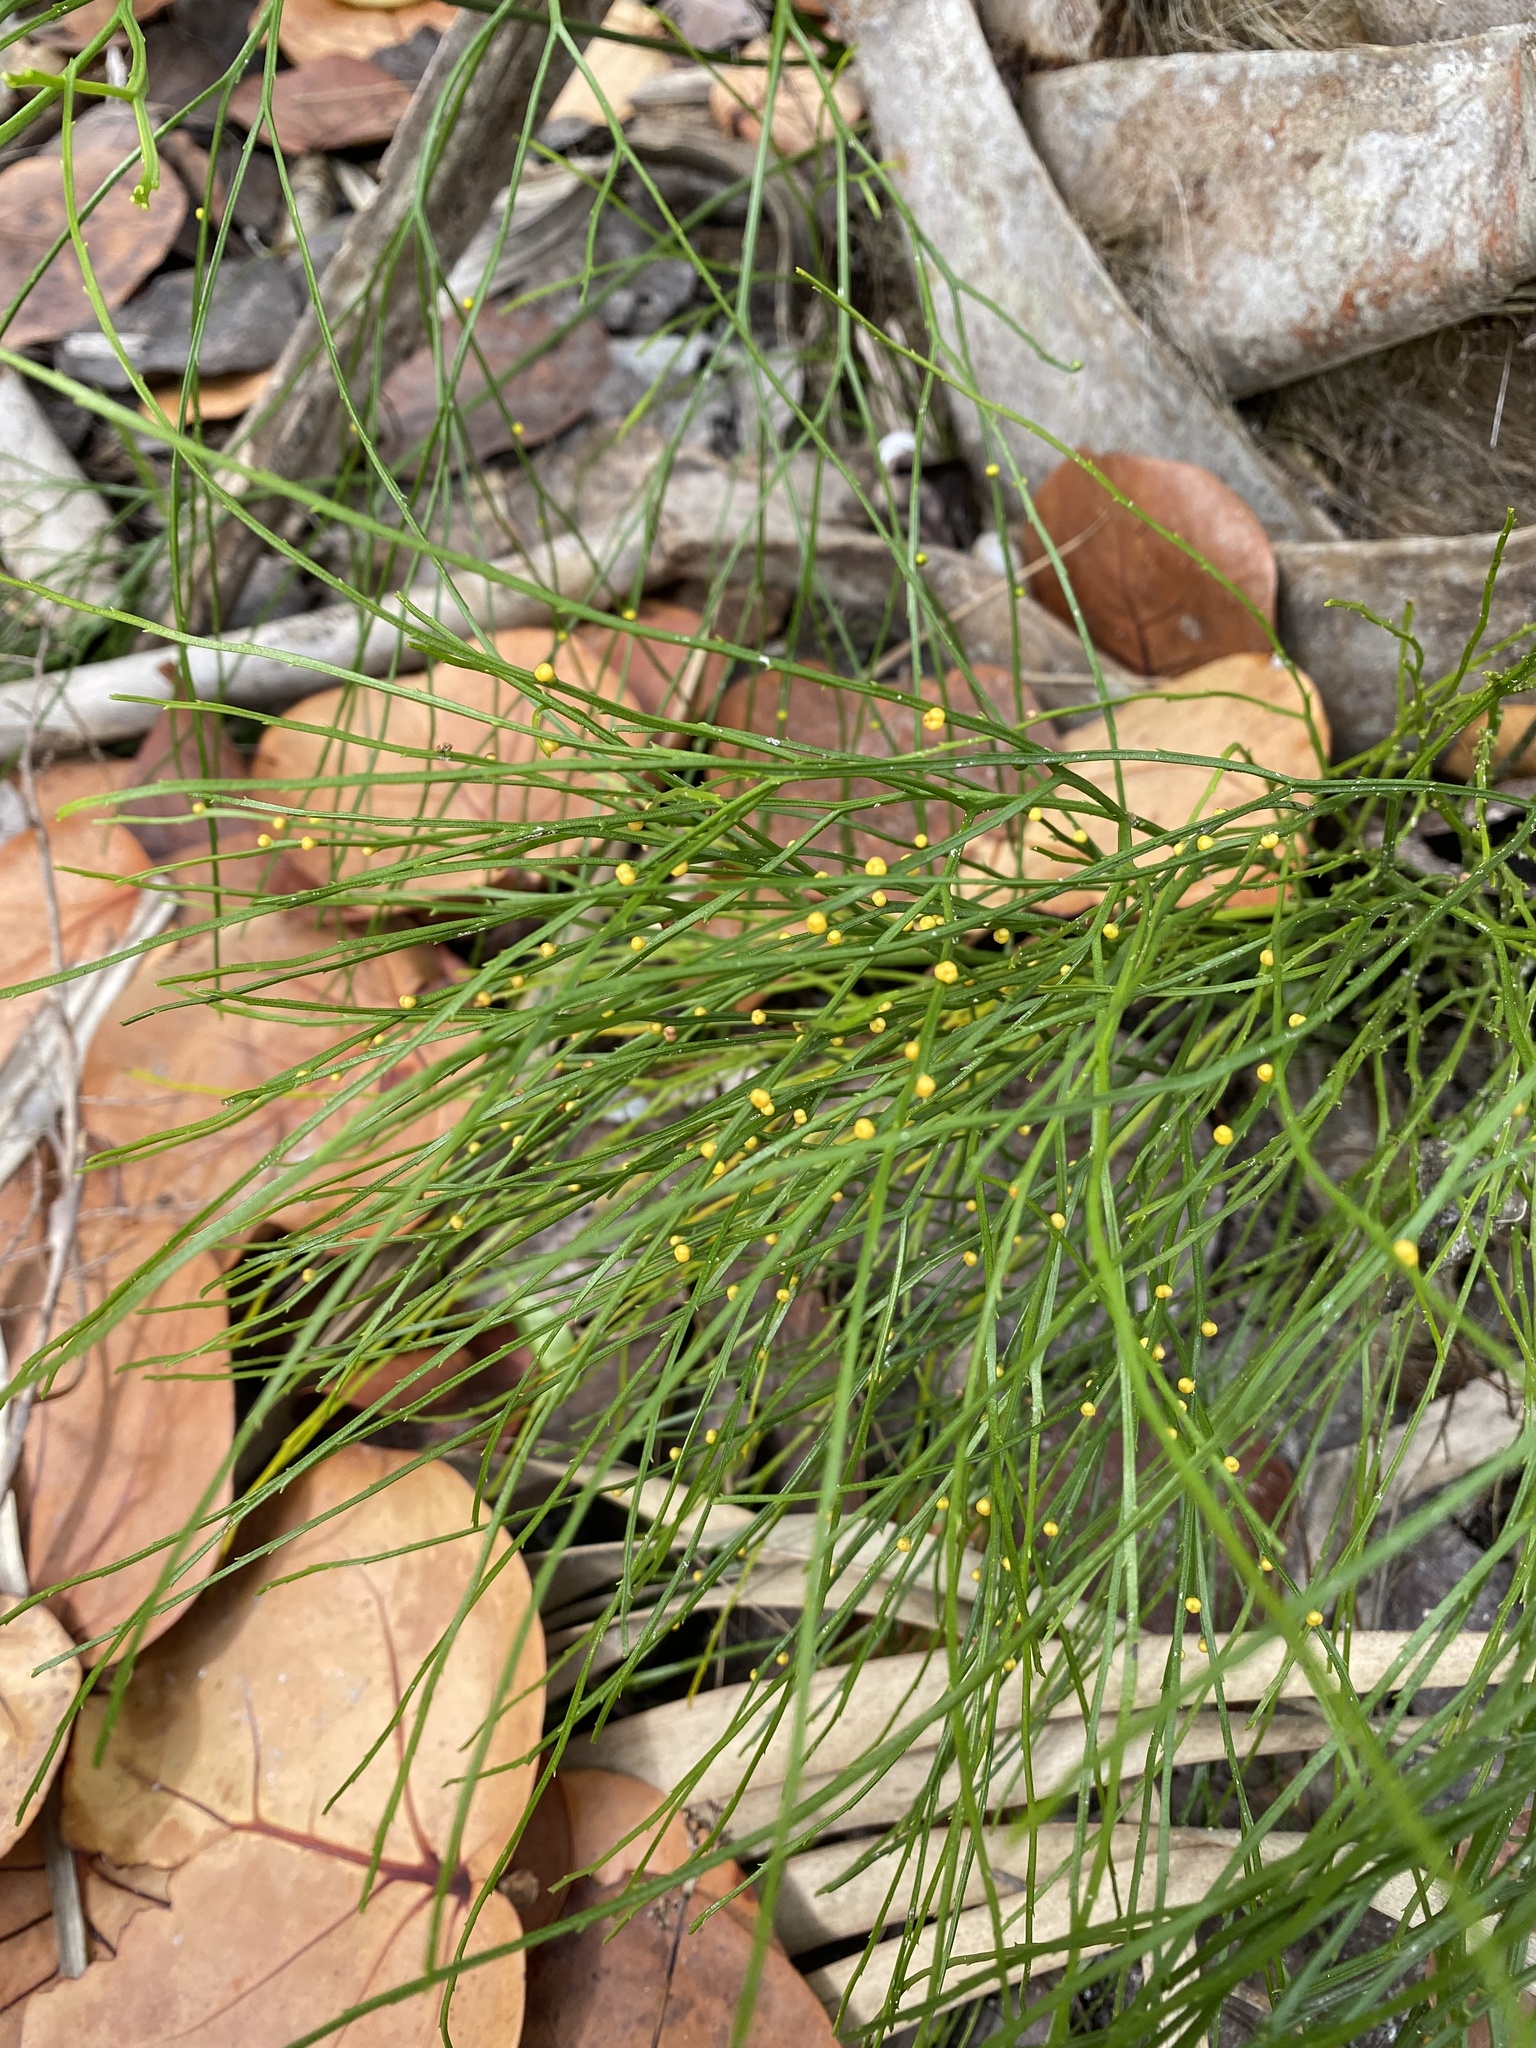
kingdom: Plantae
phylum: Tracheophyta
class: Polypodiopsida
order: Psilotales
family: Psilotaceae
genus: Psilotum
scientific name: Psilotum nudum
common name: Skeleton fork fern
